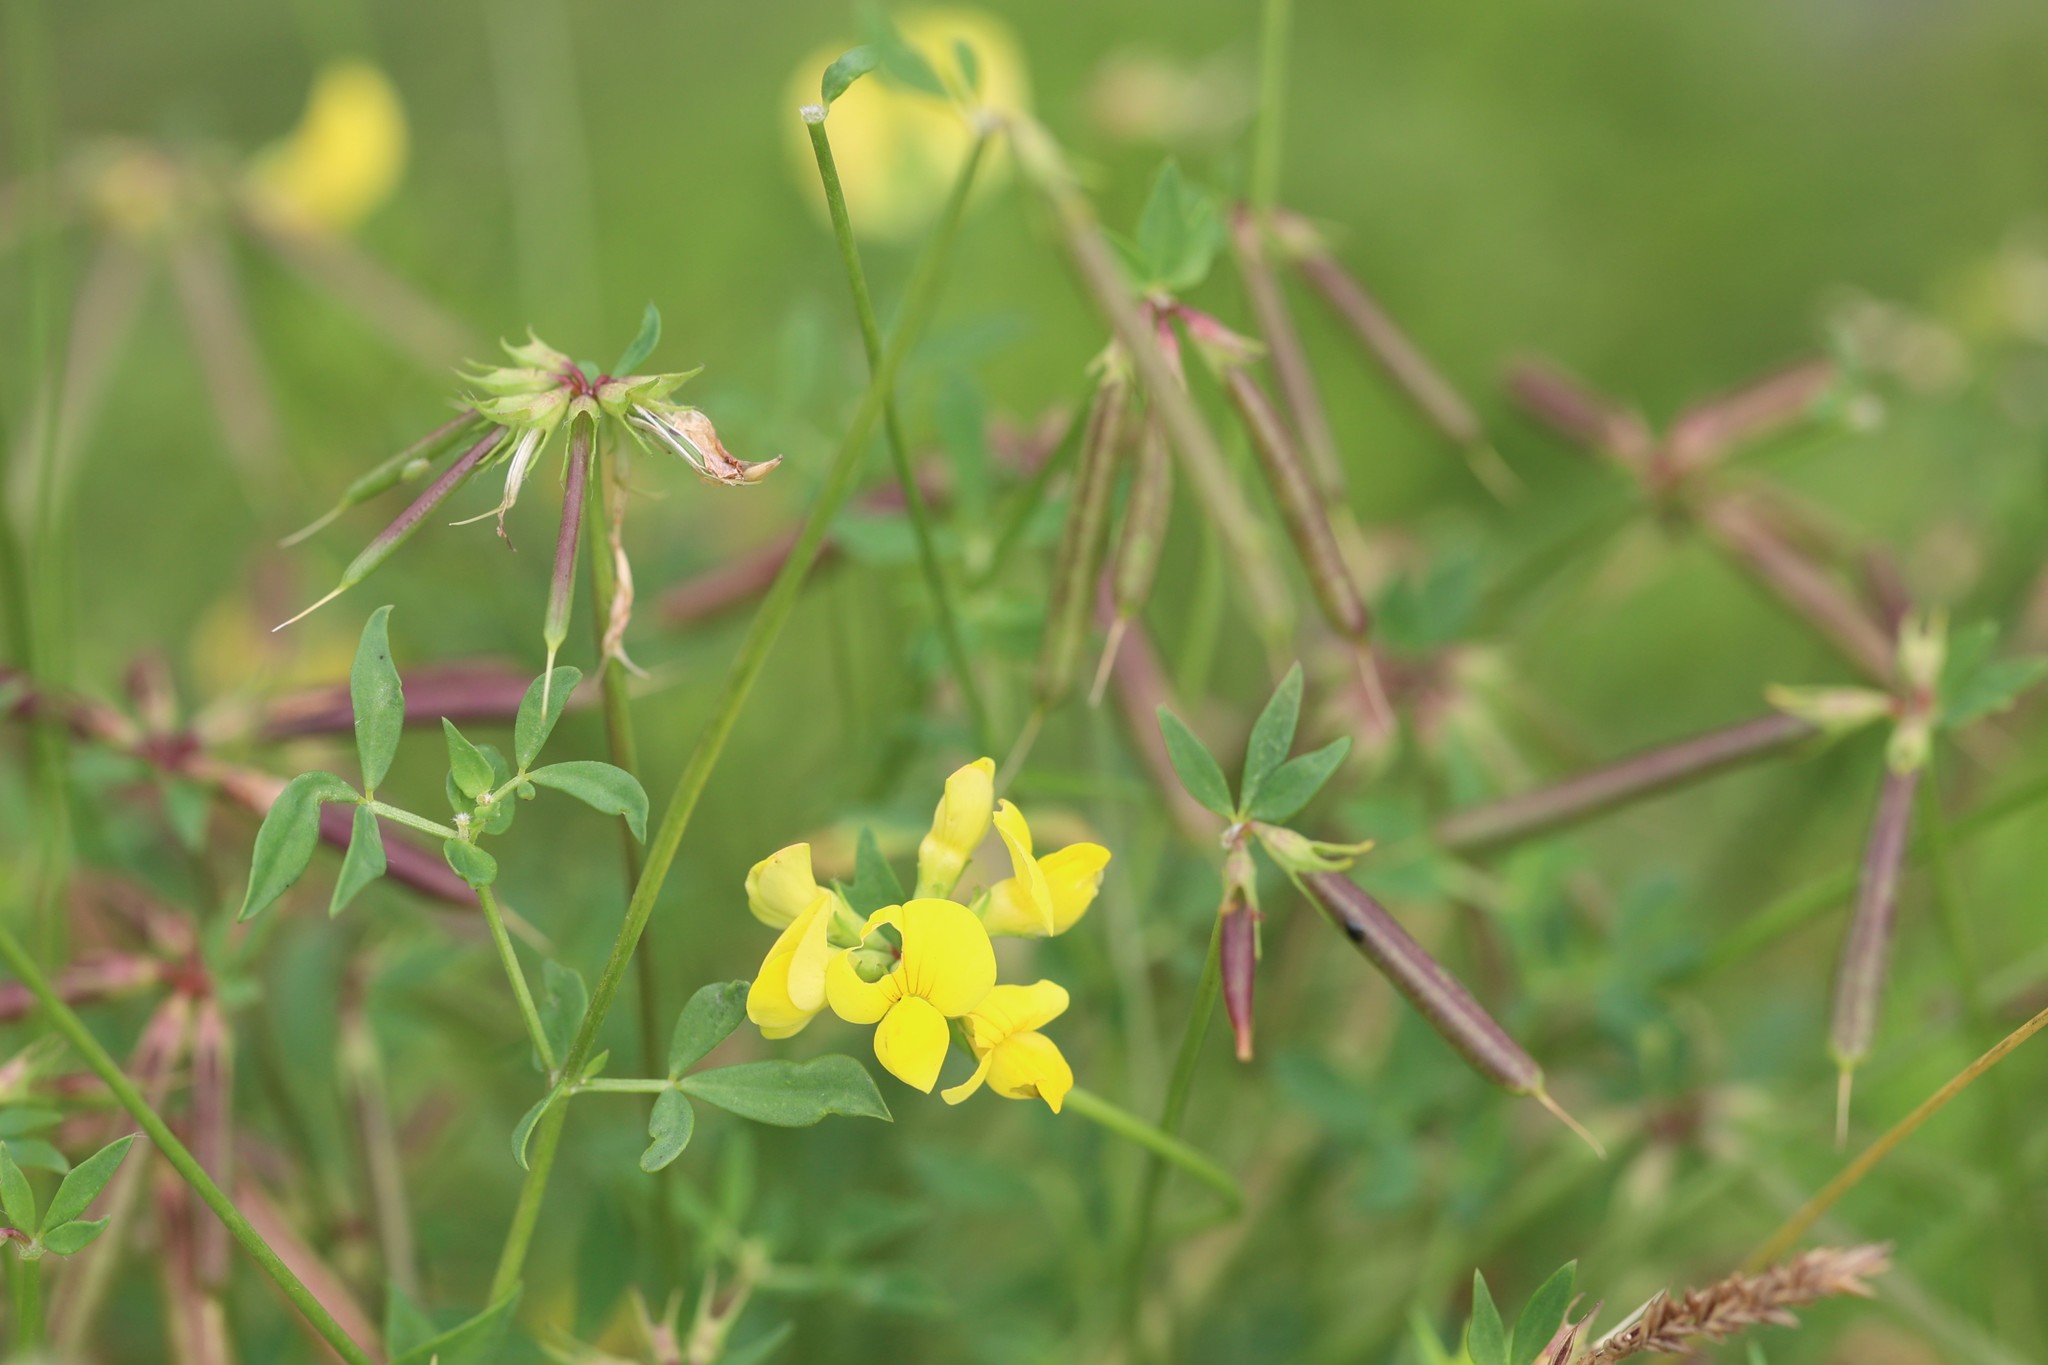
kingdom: Plantae
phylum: Tracheophyta
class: Magnoliopsida
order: Fabales
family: Fabaceae
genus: Lotus
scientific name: Lotus corniculatus
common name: Common bird's-foot-trefoil
